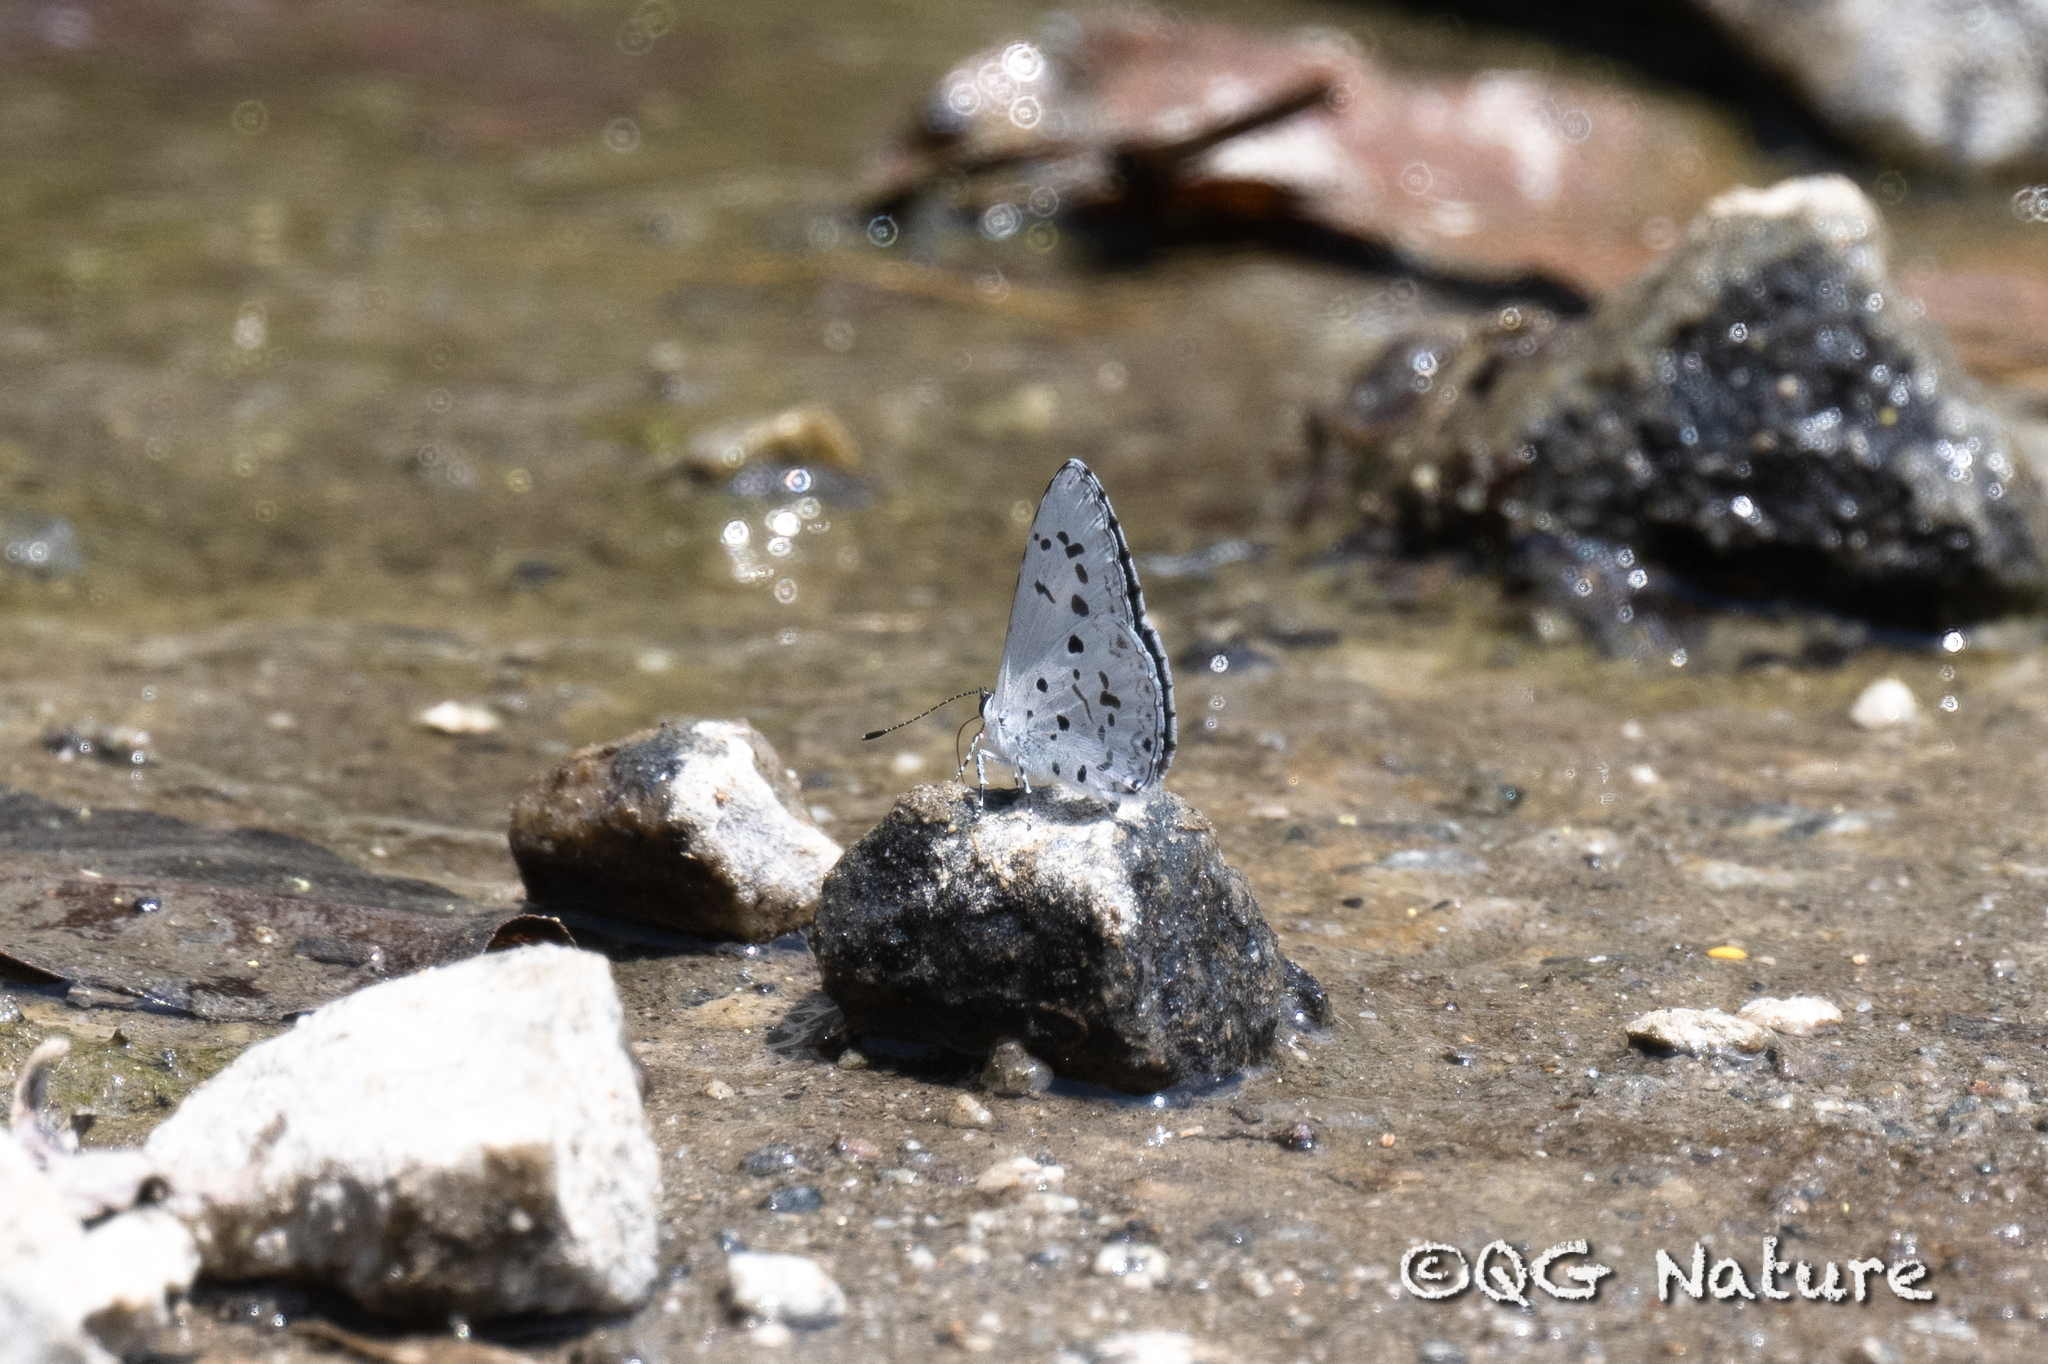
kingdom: Animalia
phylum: Arthropoda
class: Insecta
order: Lepidoptera
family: Lycaenidae
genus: Acytolepis
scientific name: Acytolepis puspa
